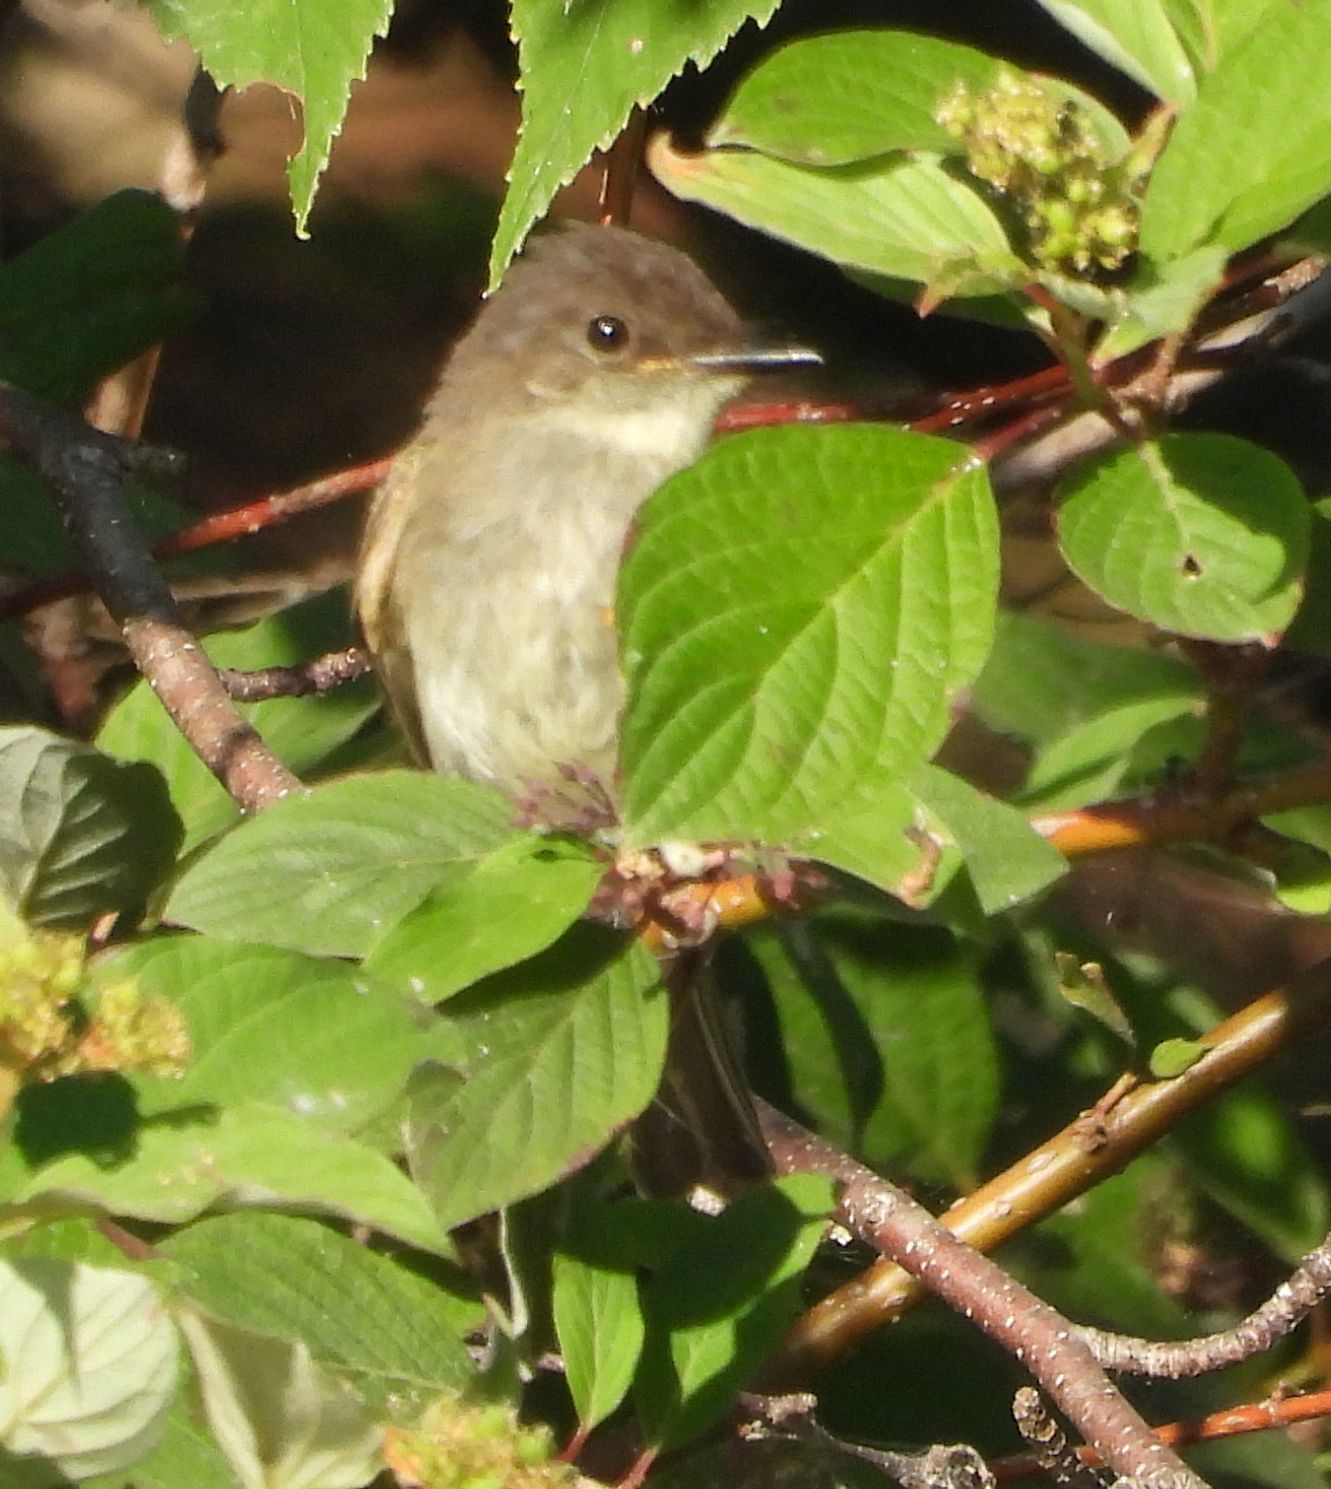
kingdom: Animalia
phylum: Chordata
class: Aves
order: Passeriformes
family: Tyrannidae
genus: Sayornis
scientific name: Sayornis phoebe
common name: Eastern phoebe
